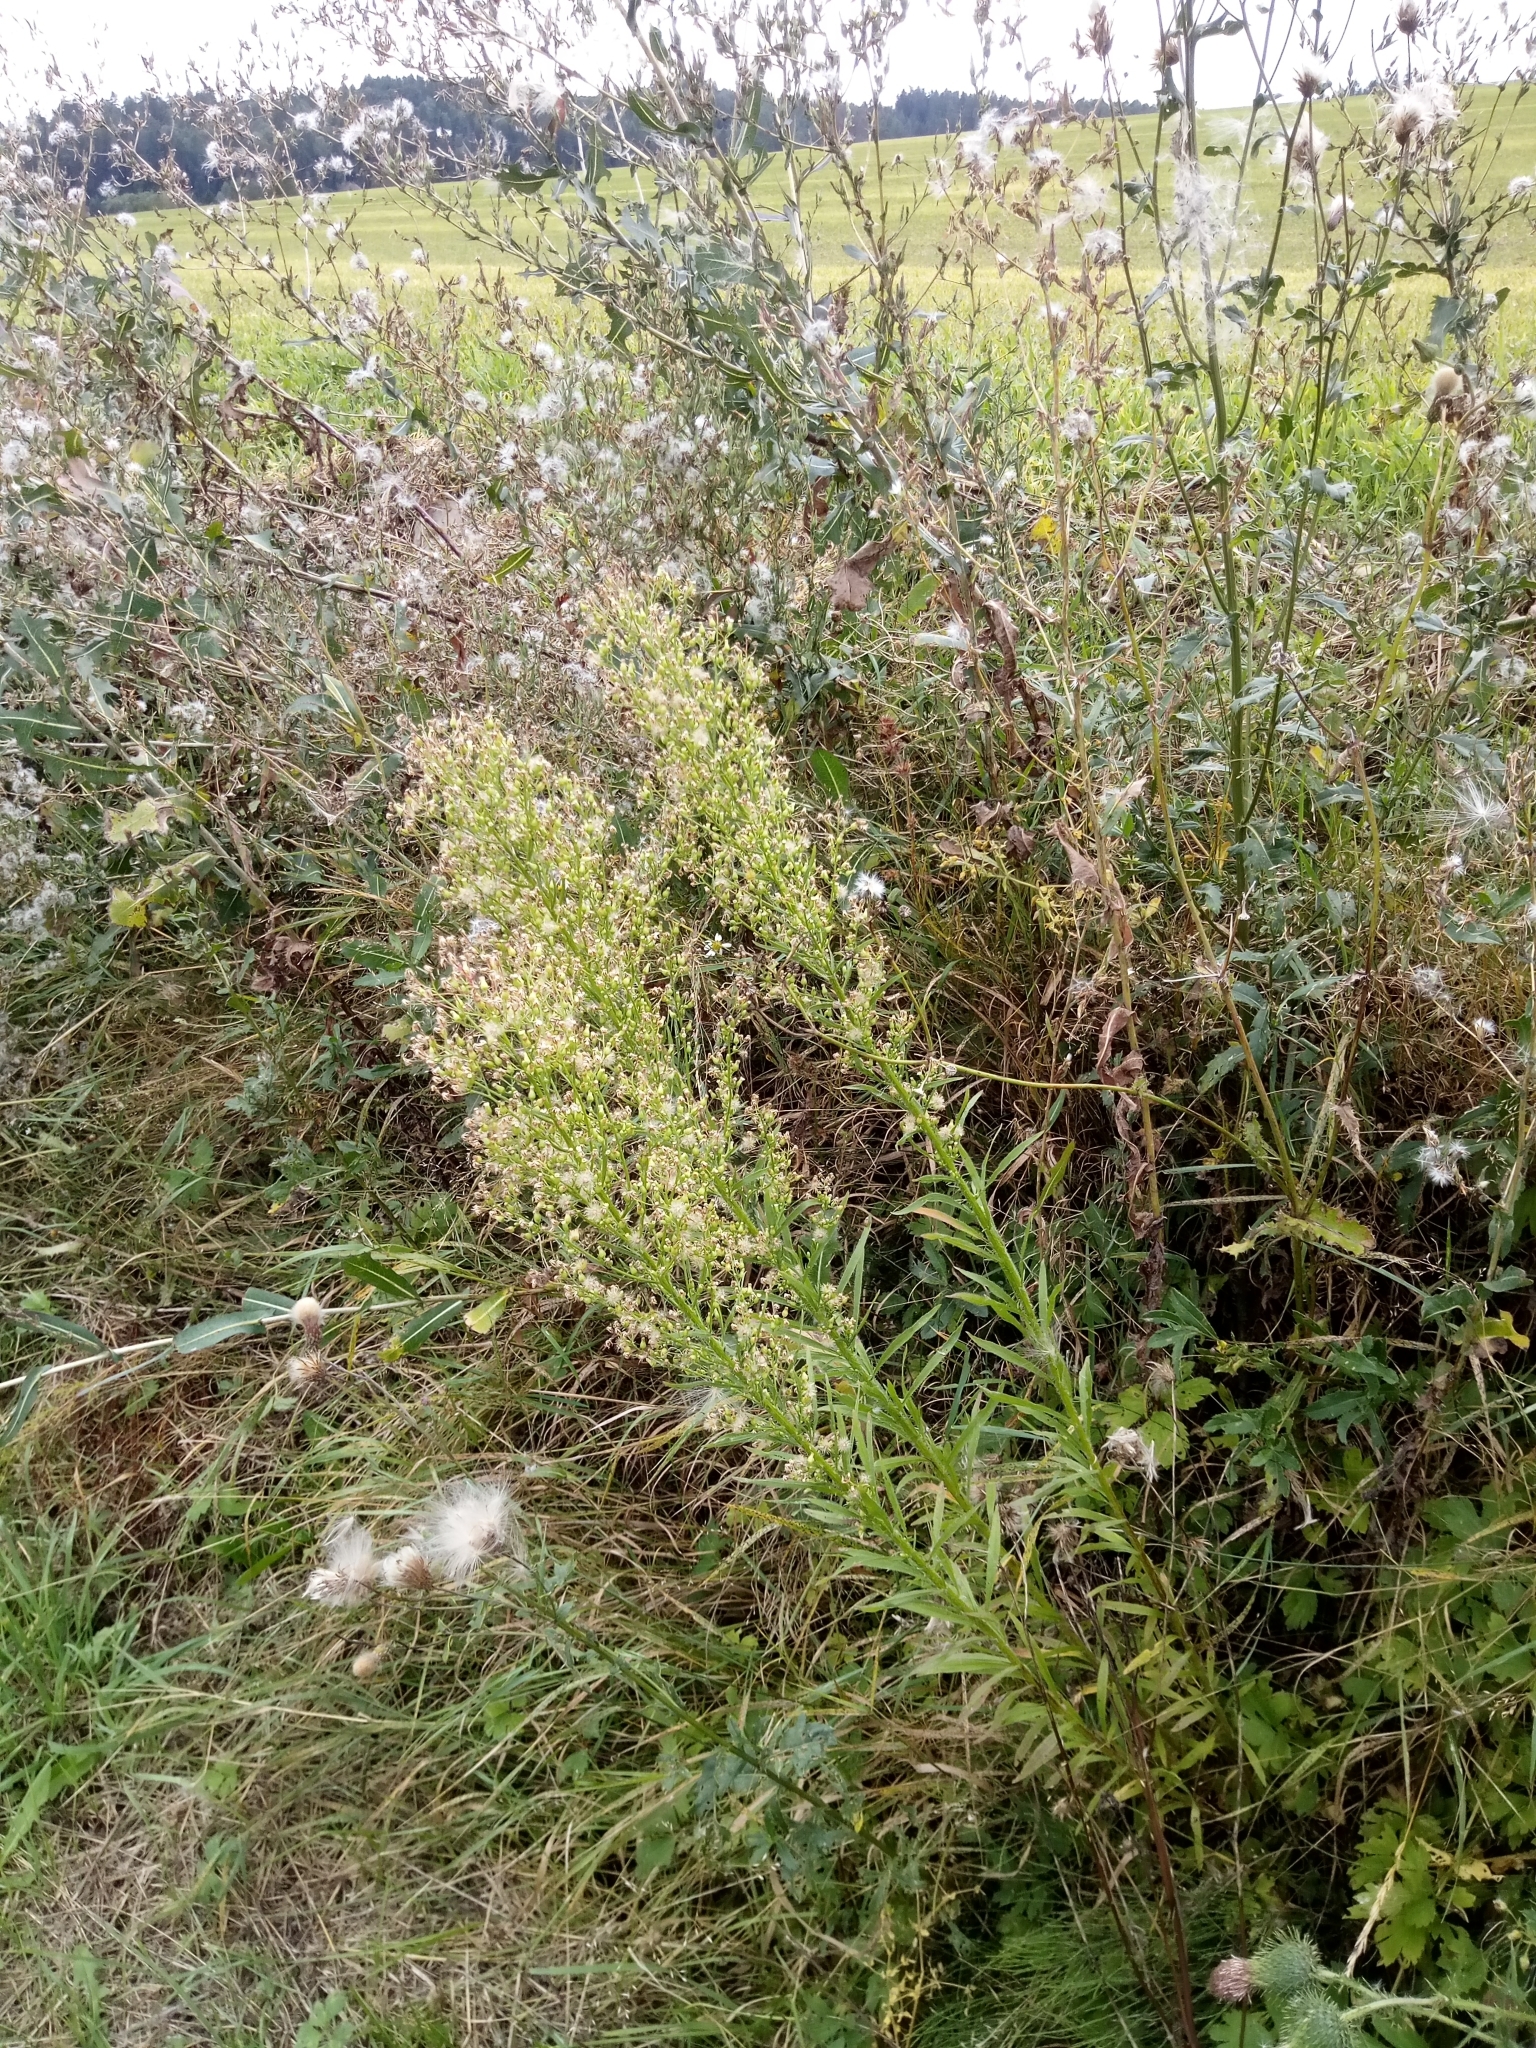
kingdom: Plantae
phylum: Tracheophyta
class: Magnoliopsida
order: Asterales
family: Asteraceae
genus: Erigeron
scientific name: Erigeron canadensis
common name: Canadian fleabane
